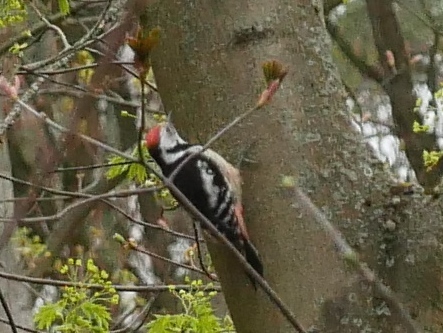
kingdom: Animalia
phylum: Chordata
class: Aves
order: Piciformes
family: Picidae
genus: Dendrocoptes
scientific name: Dendrocoptes medius
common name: Middle spotted woodpecker
